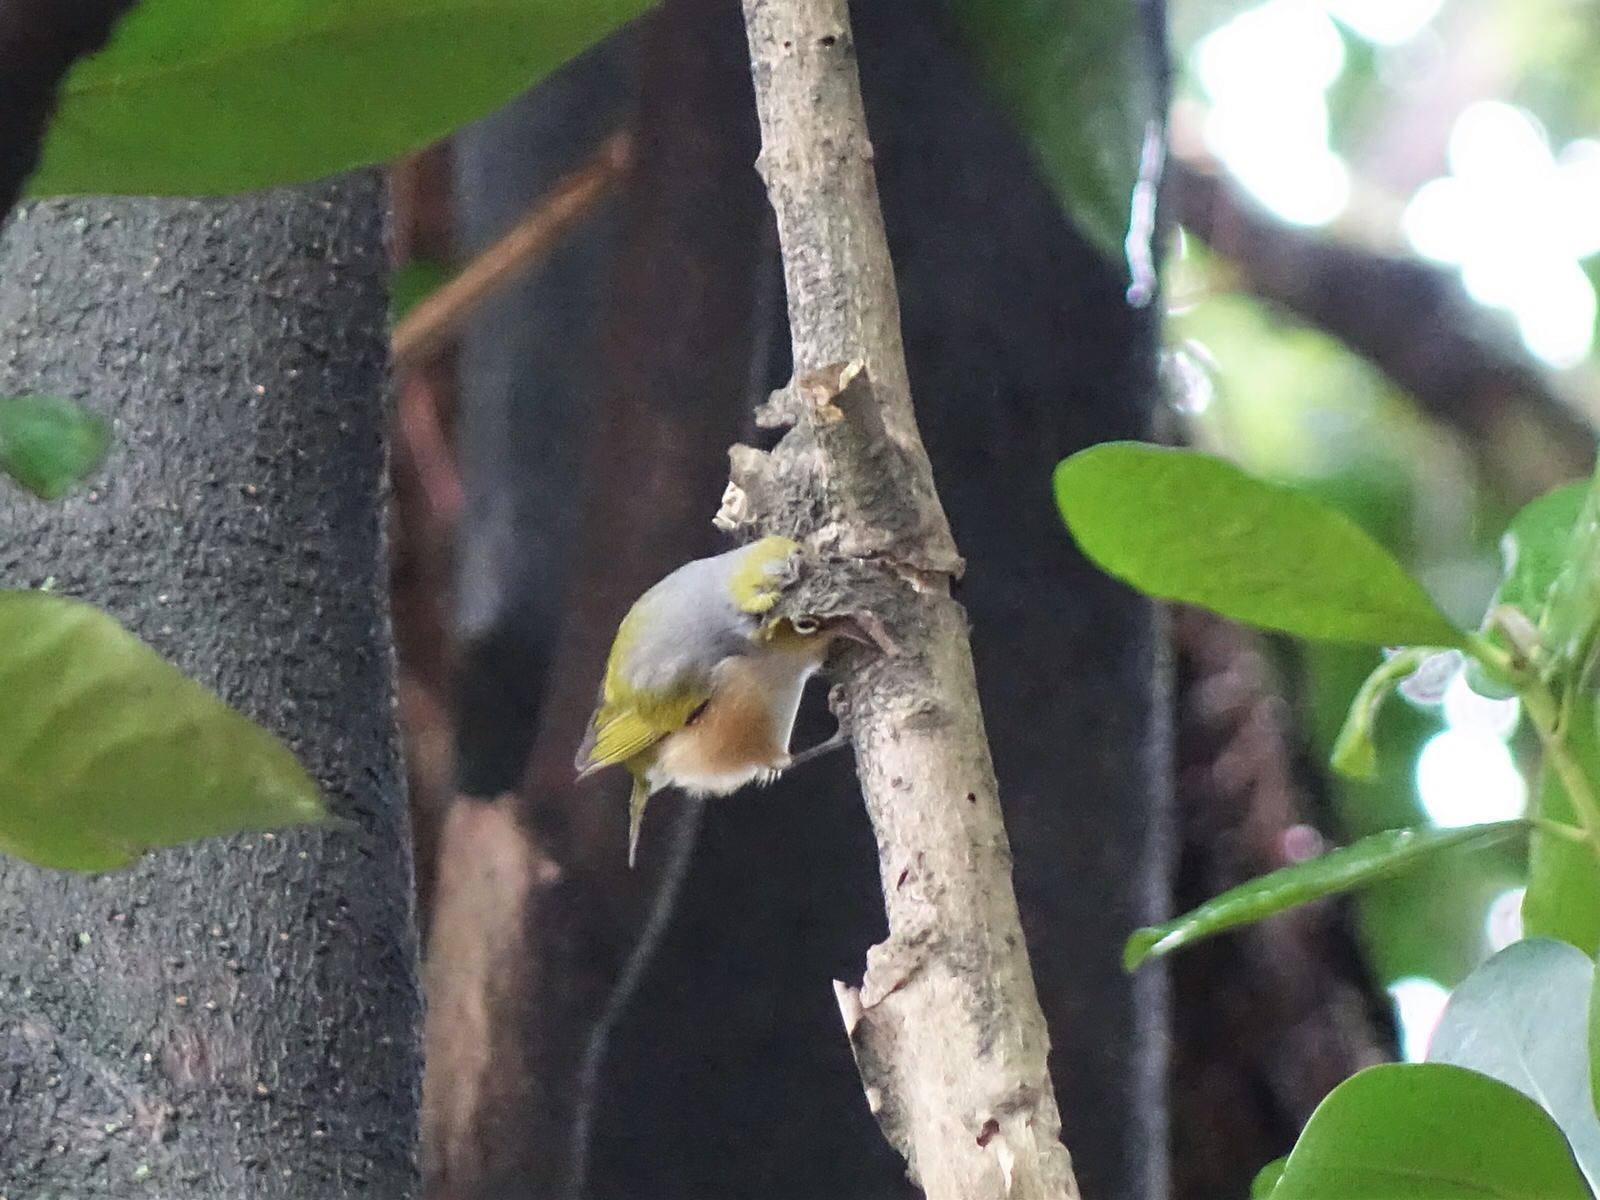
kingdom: Animalia
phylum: Chordata
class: Aves
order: Passeriformes
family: Zosteropidae
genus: Zosterops
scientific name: Zosterops lateralis
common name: Silvereye
